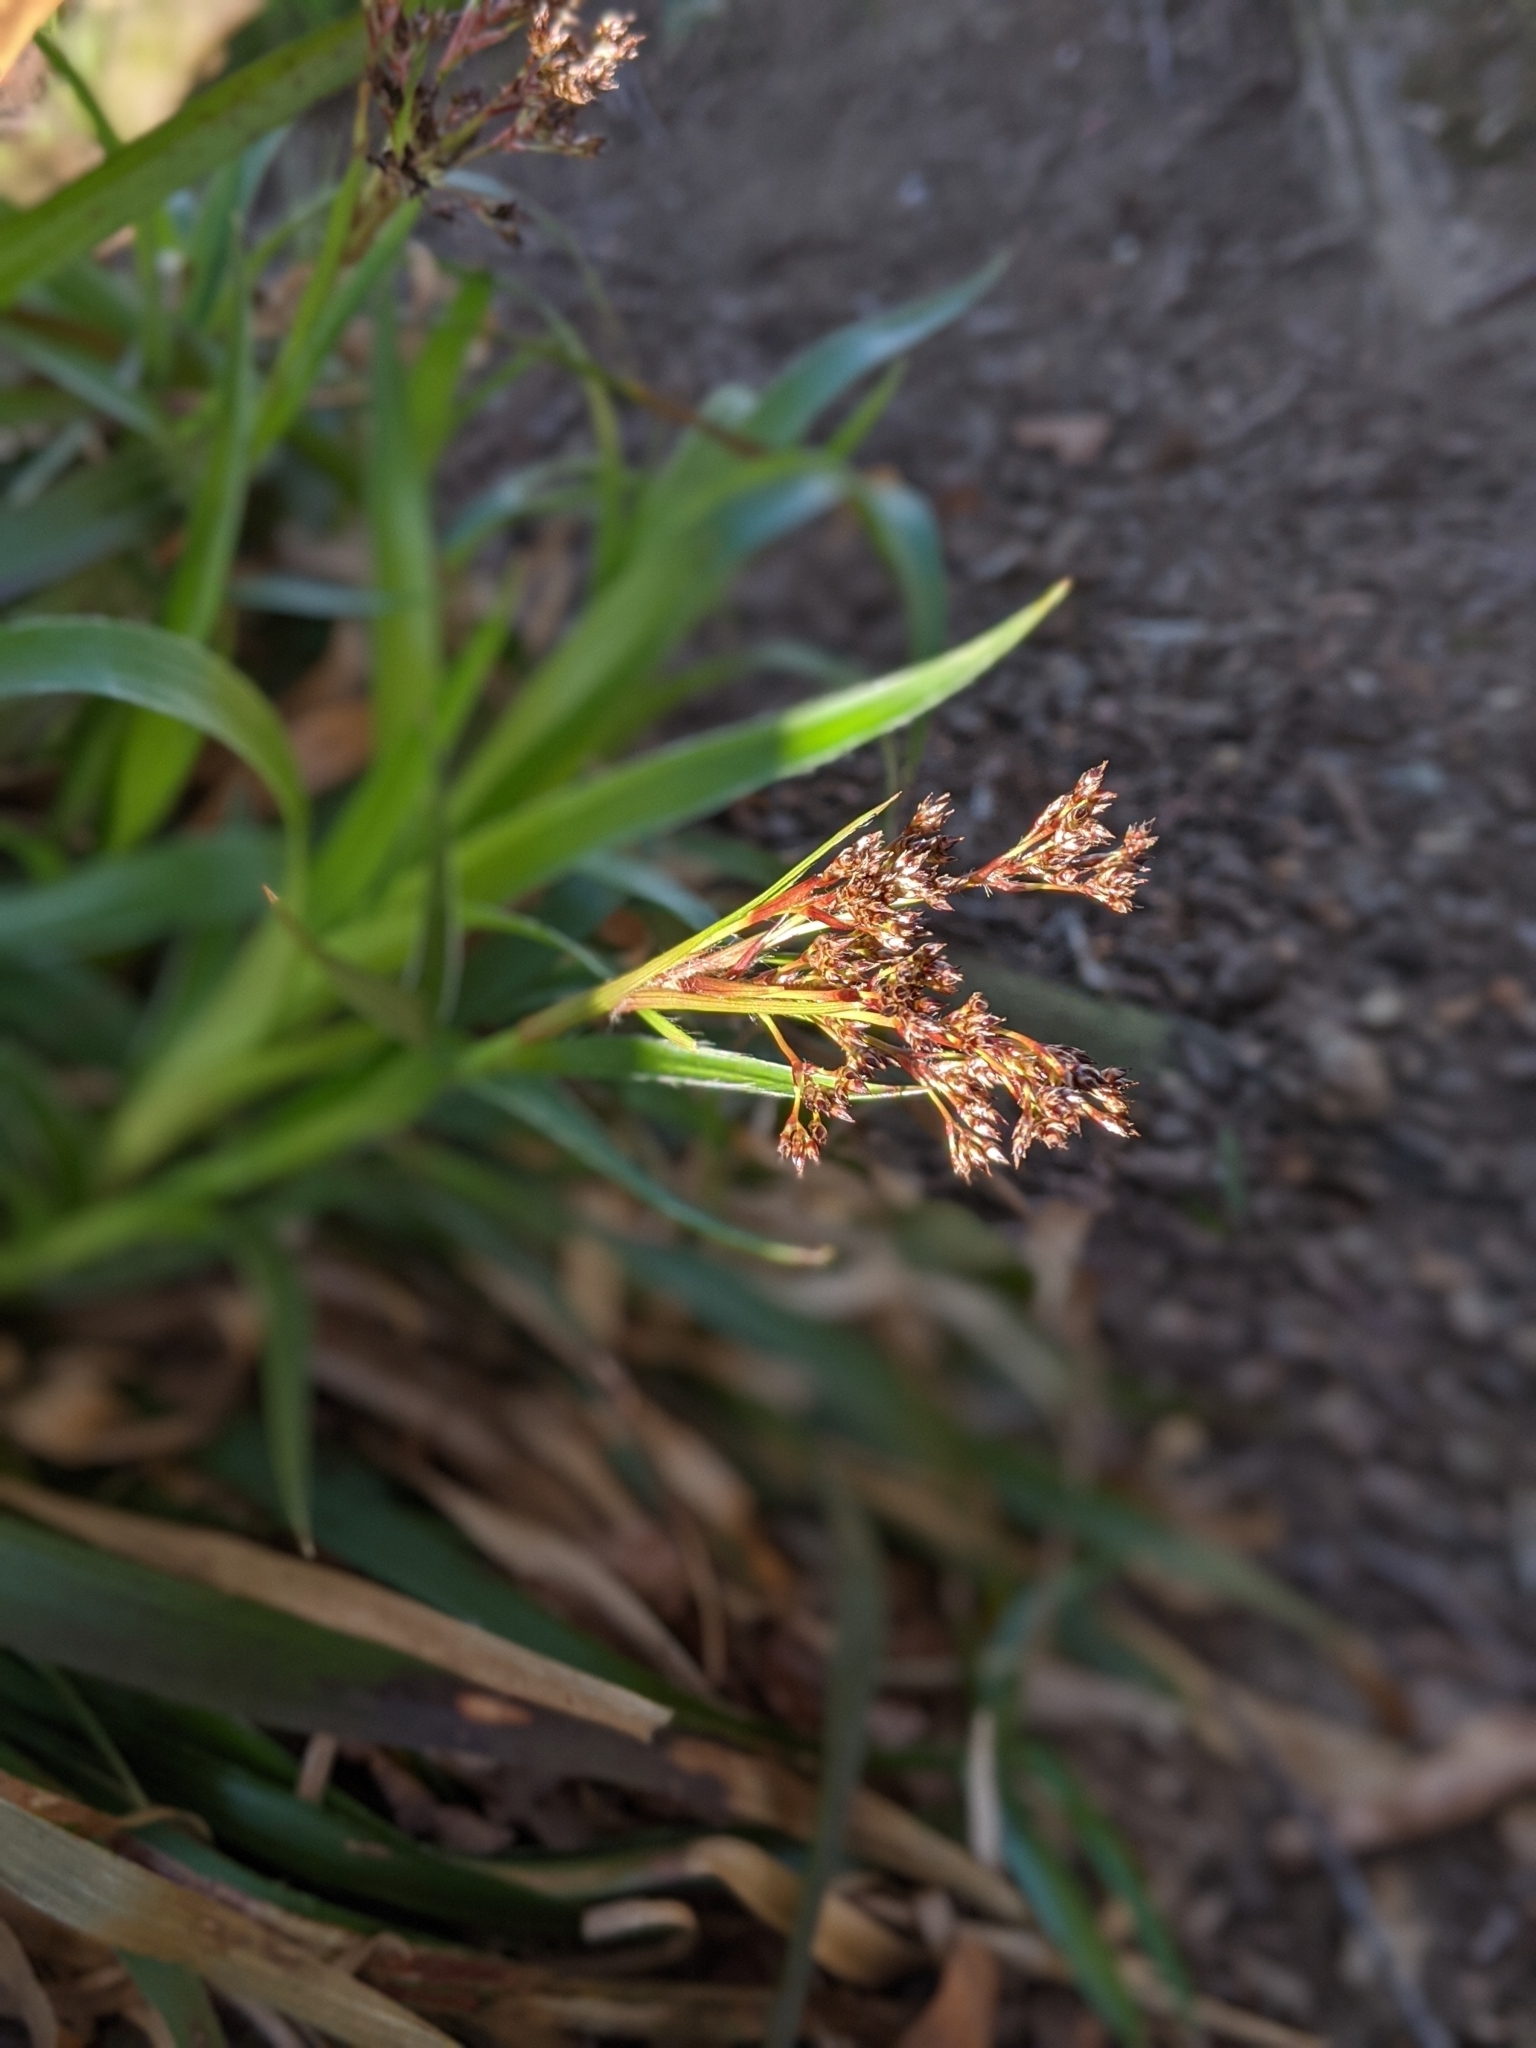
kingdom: Plantae
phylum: Tracheophyta
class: Liliopsida
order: Poales
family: Juncaceae
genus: Luzula
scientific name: Luzula sylvatica
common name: Great wood-rush
